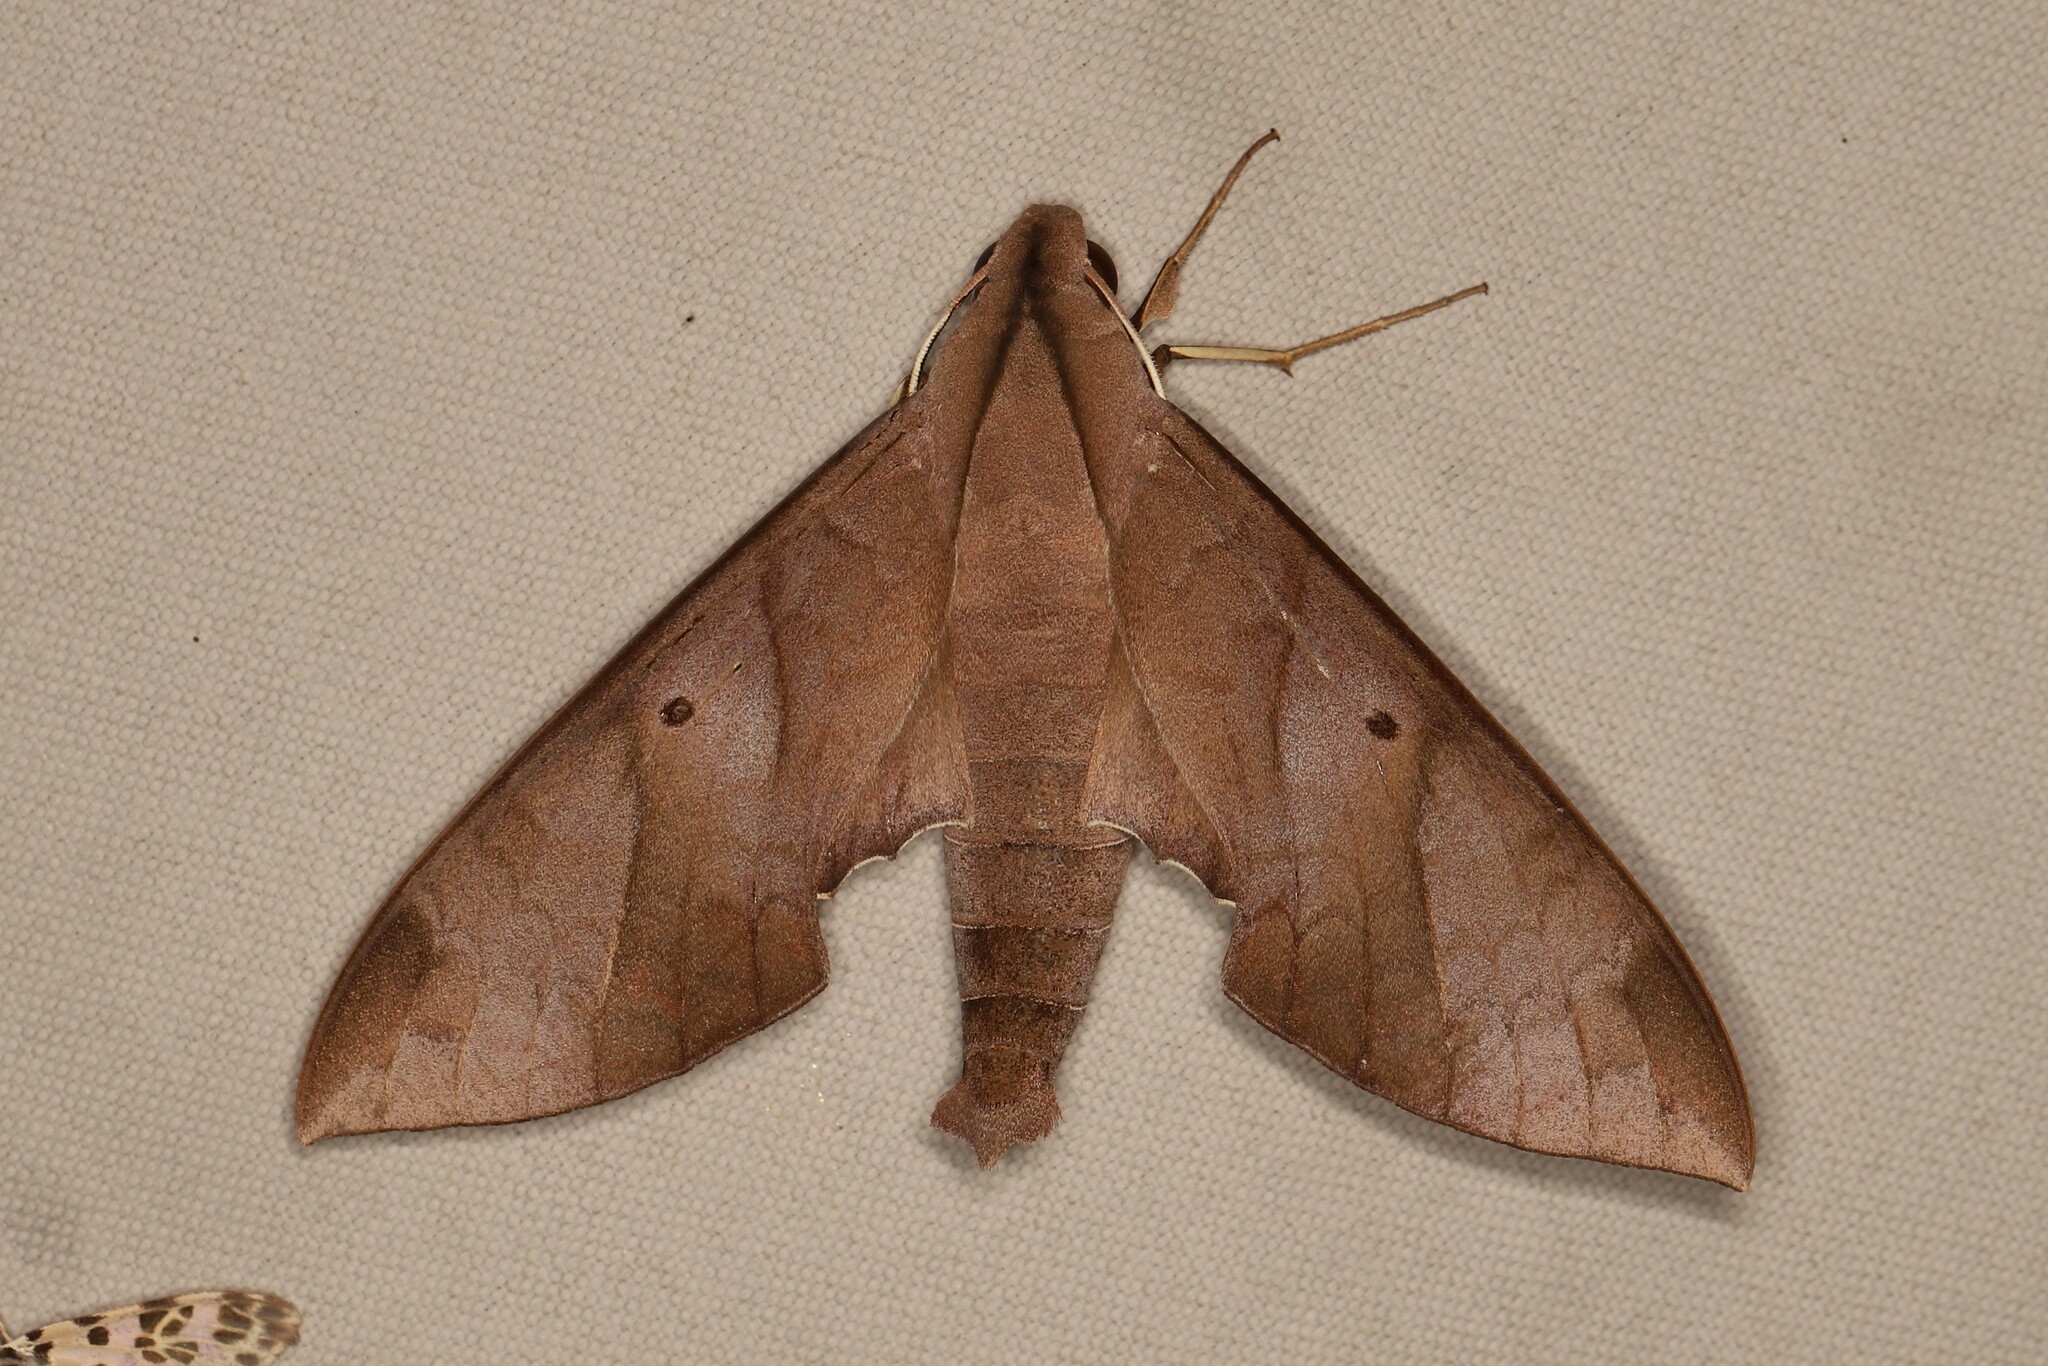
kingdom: Animalia
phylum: Arthropoda
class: Insecta
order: Lepidoptera
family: Sphingidae
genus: Pachylia
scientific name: Pachylia darceta
